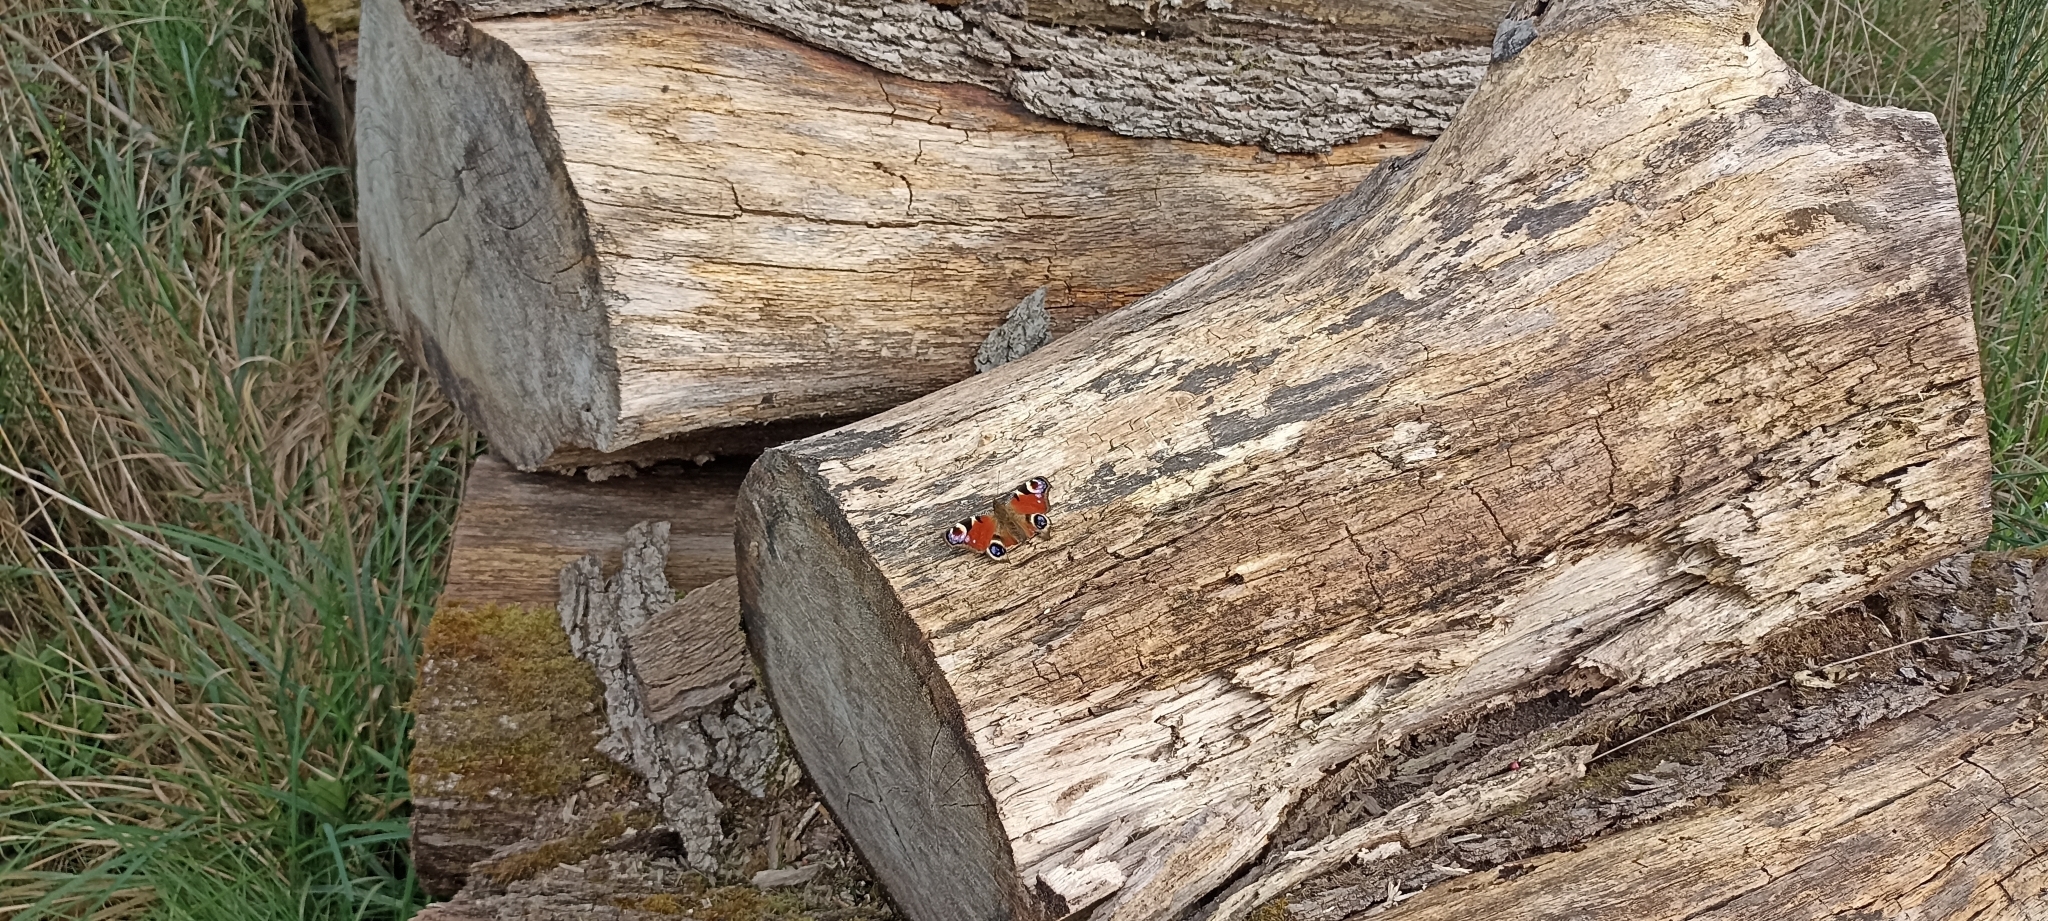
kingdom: Animalia
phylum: Arthropoda
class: Insecta
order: Lepidoptera
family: Nymphalidae
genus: Aglais
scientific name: Aglais io
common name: Peacock
